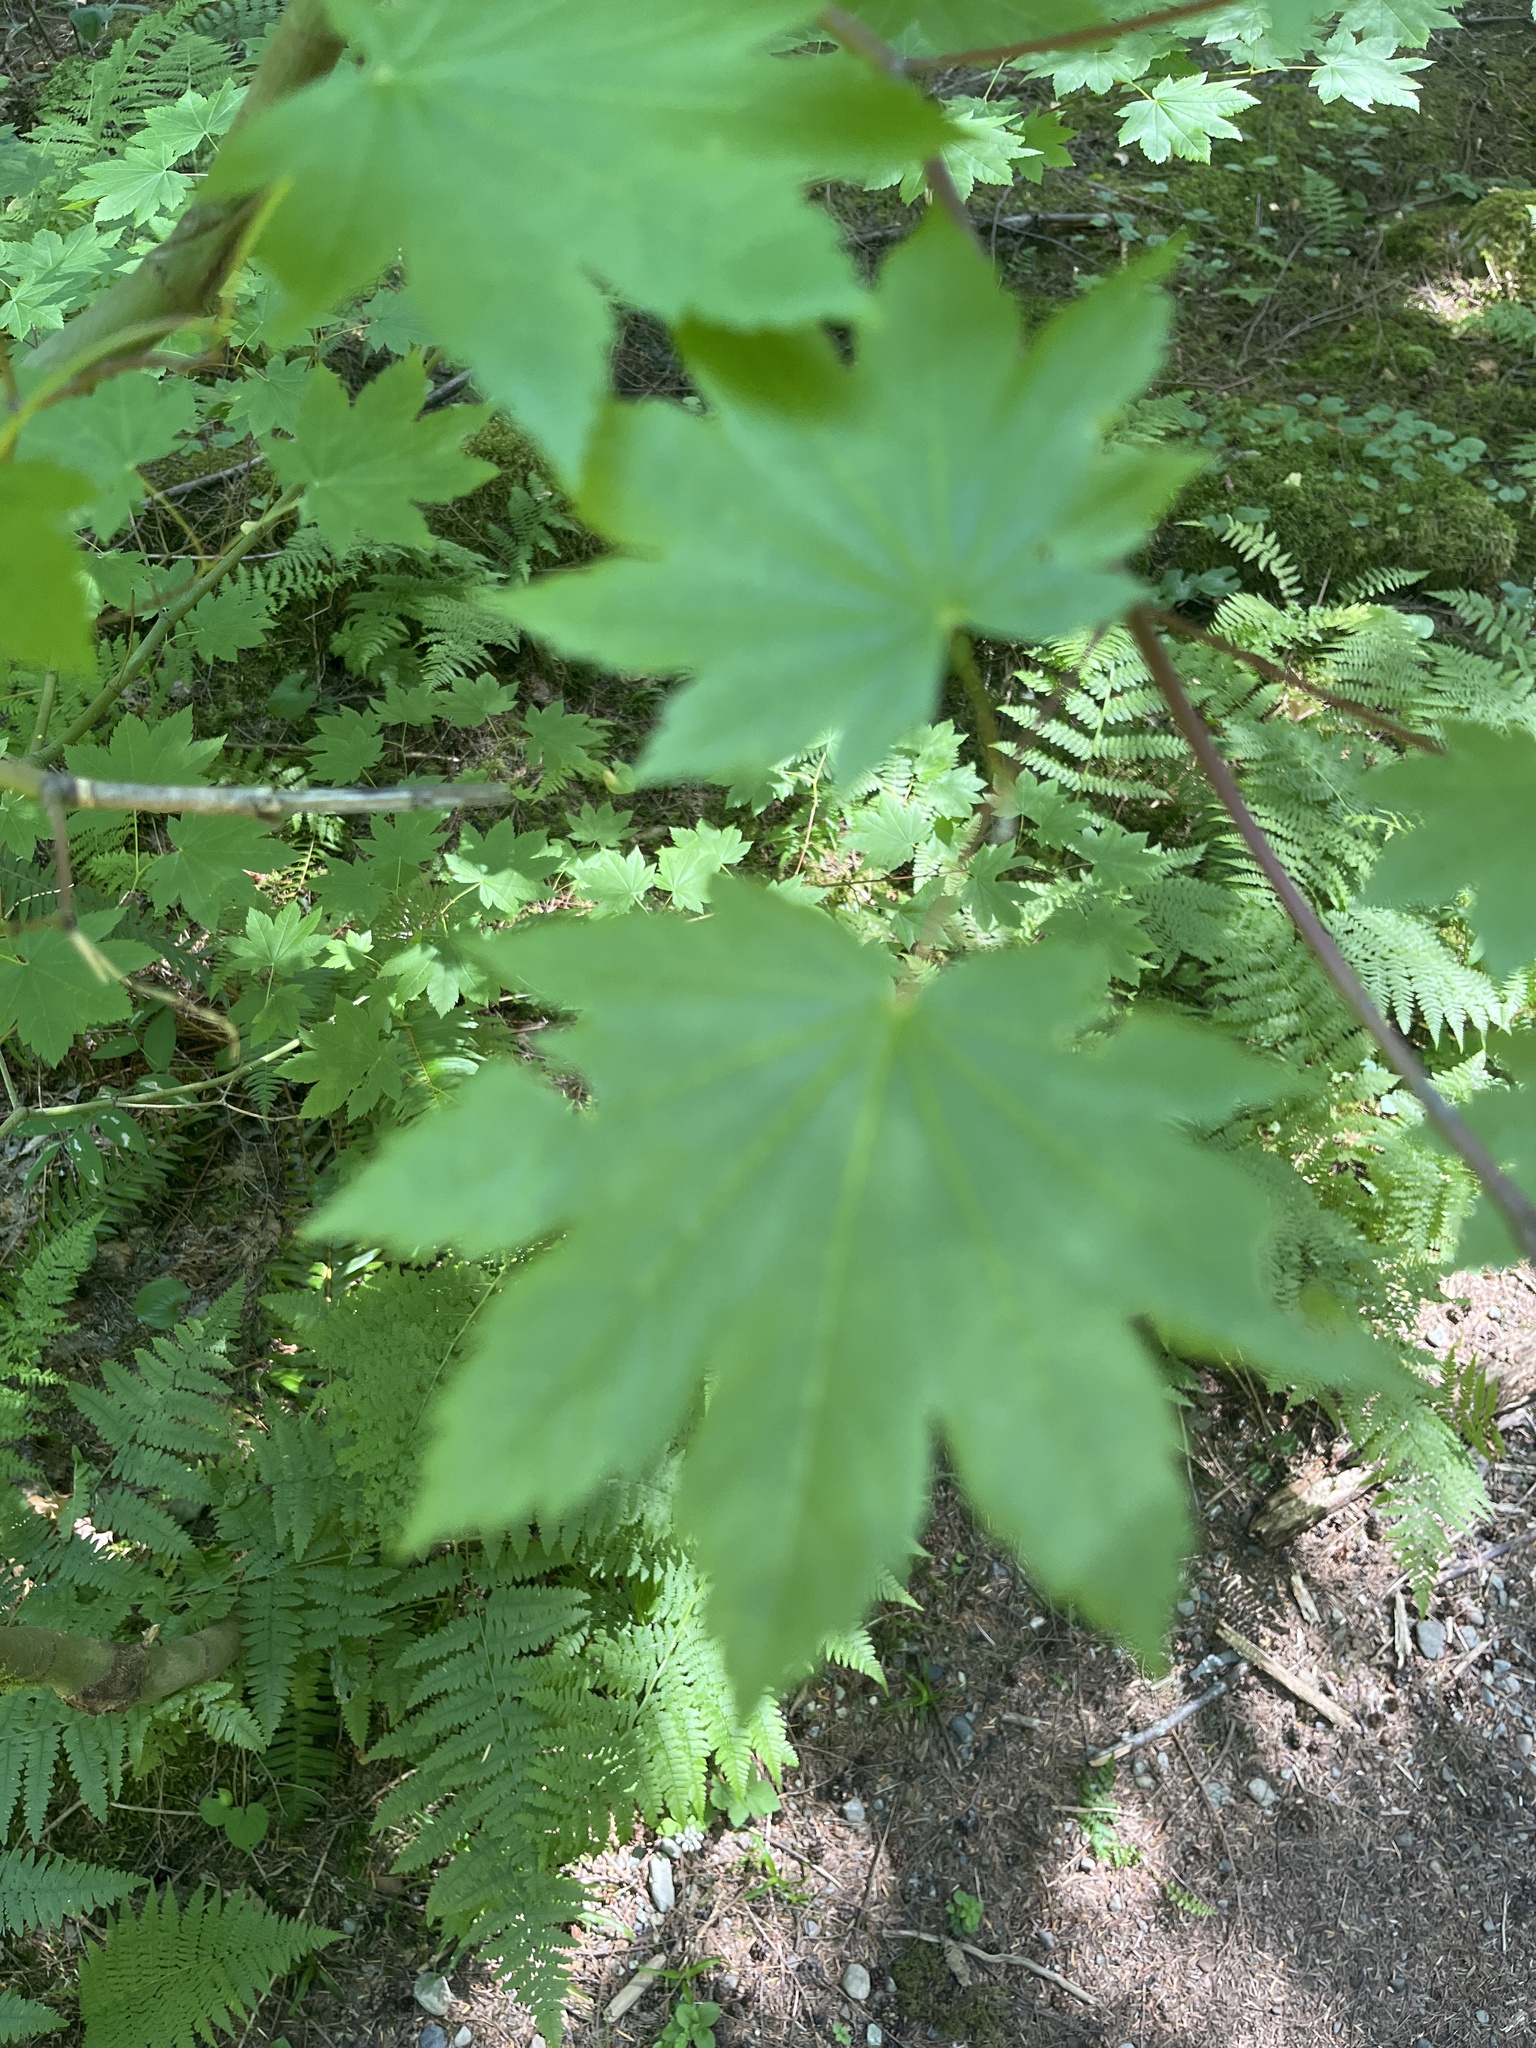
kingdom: Plantae
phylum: Tracheophyta
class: Magnoliopsida
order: Sapindales
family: Sapindaceae
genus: Acer
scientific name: Acer circinatum
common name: Vine maple
